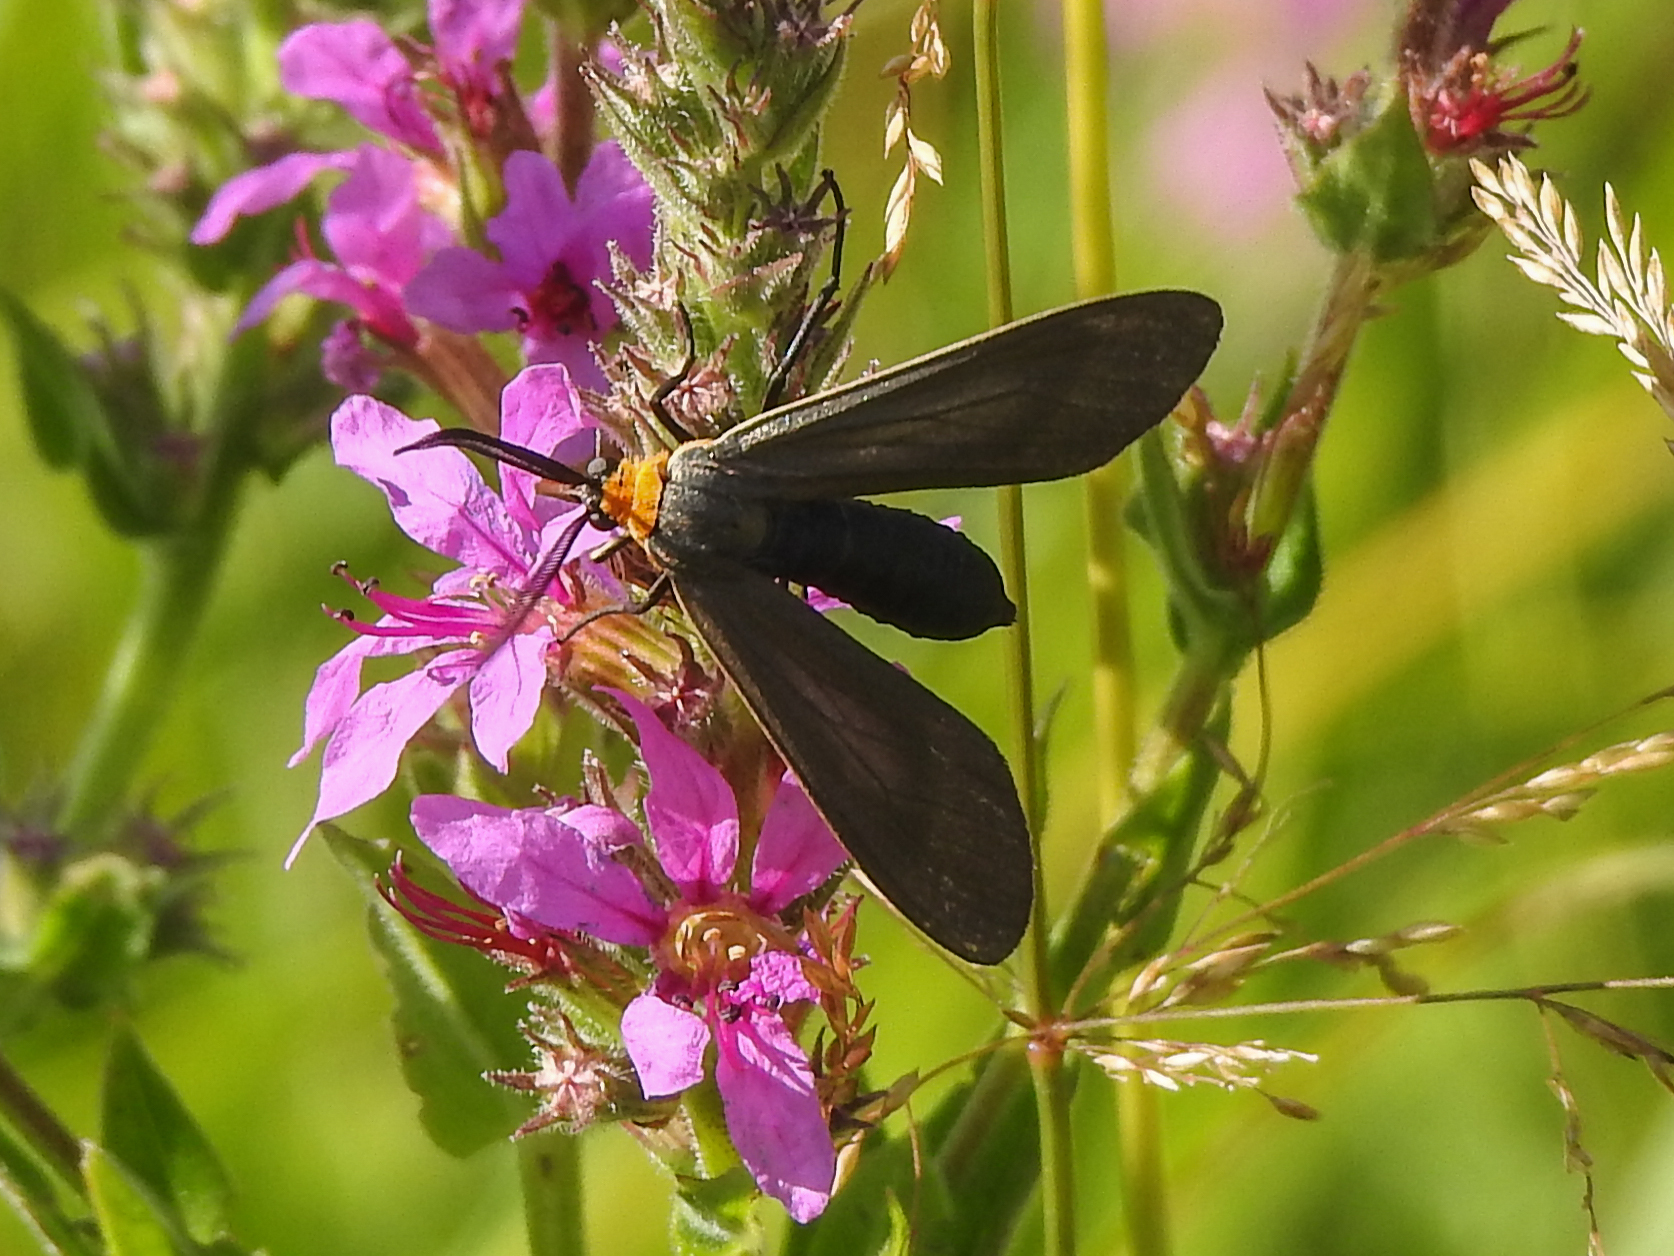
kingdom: Animalia
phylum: Arthropoda
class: Insecta
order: Lepidoptera
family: Erebidae
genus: Cisseps
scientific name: Cisseps fulvicollis
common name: Yellow-collared scape moth
